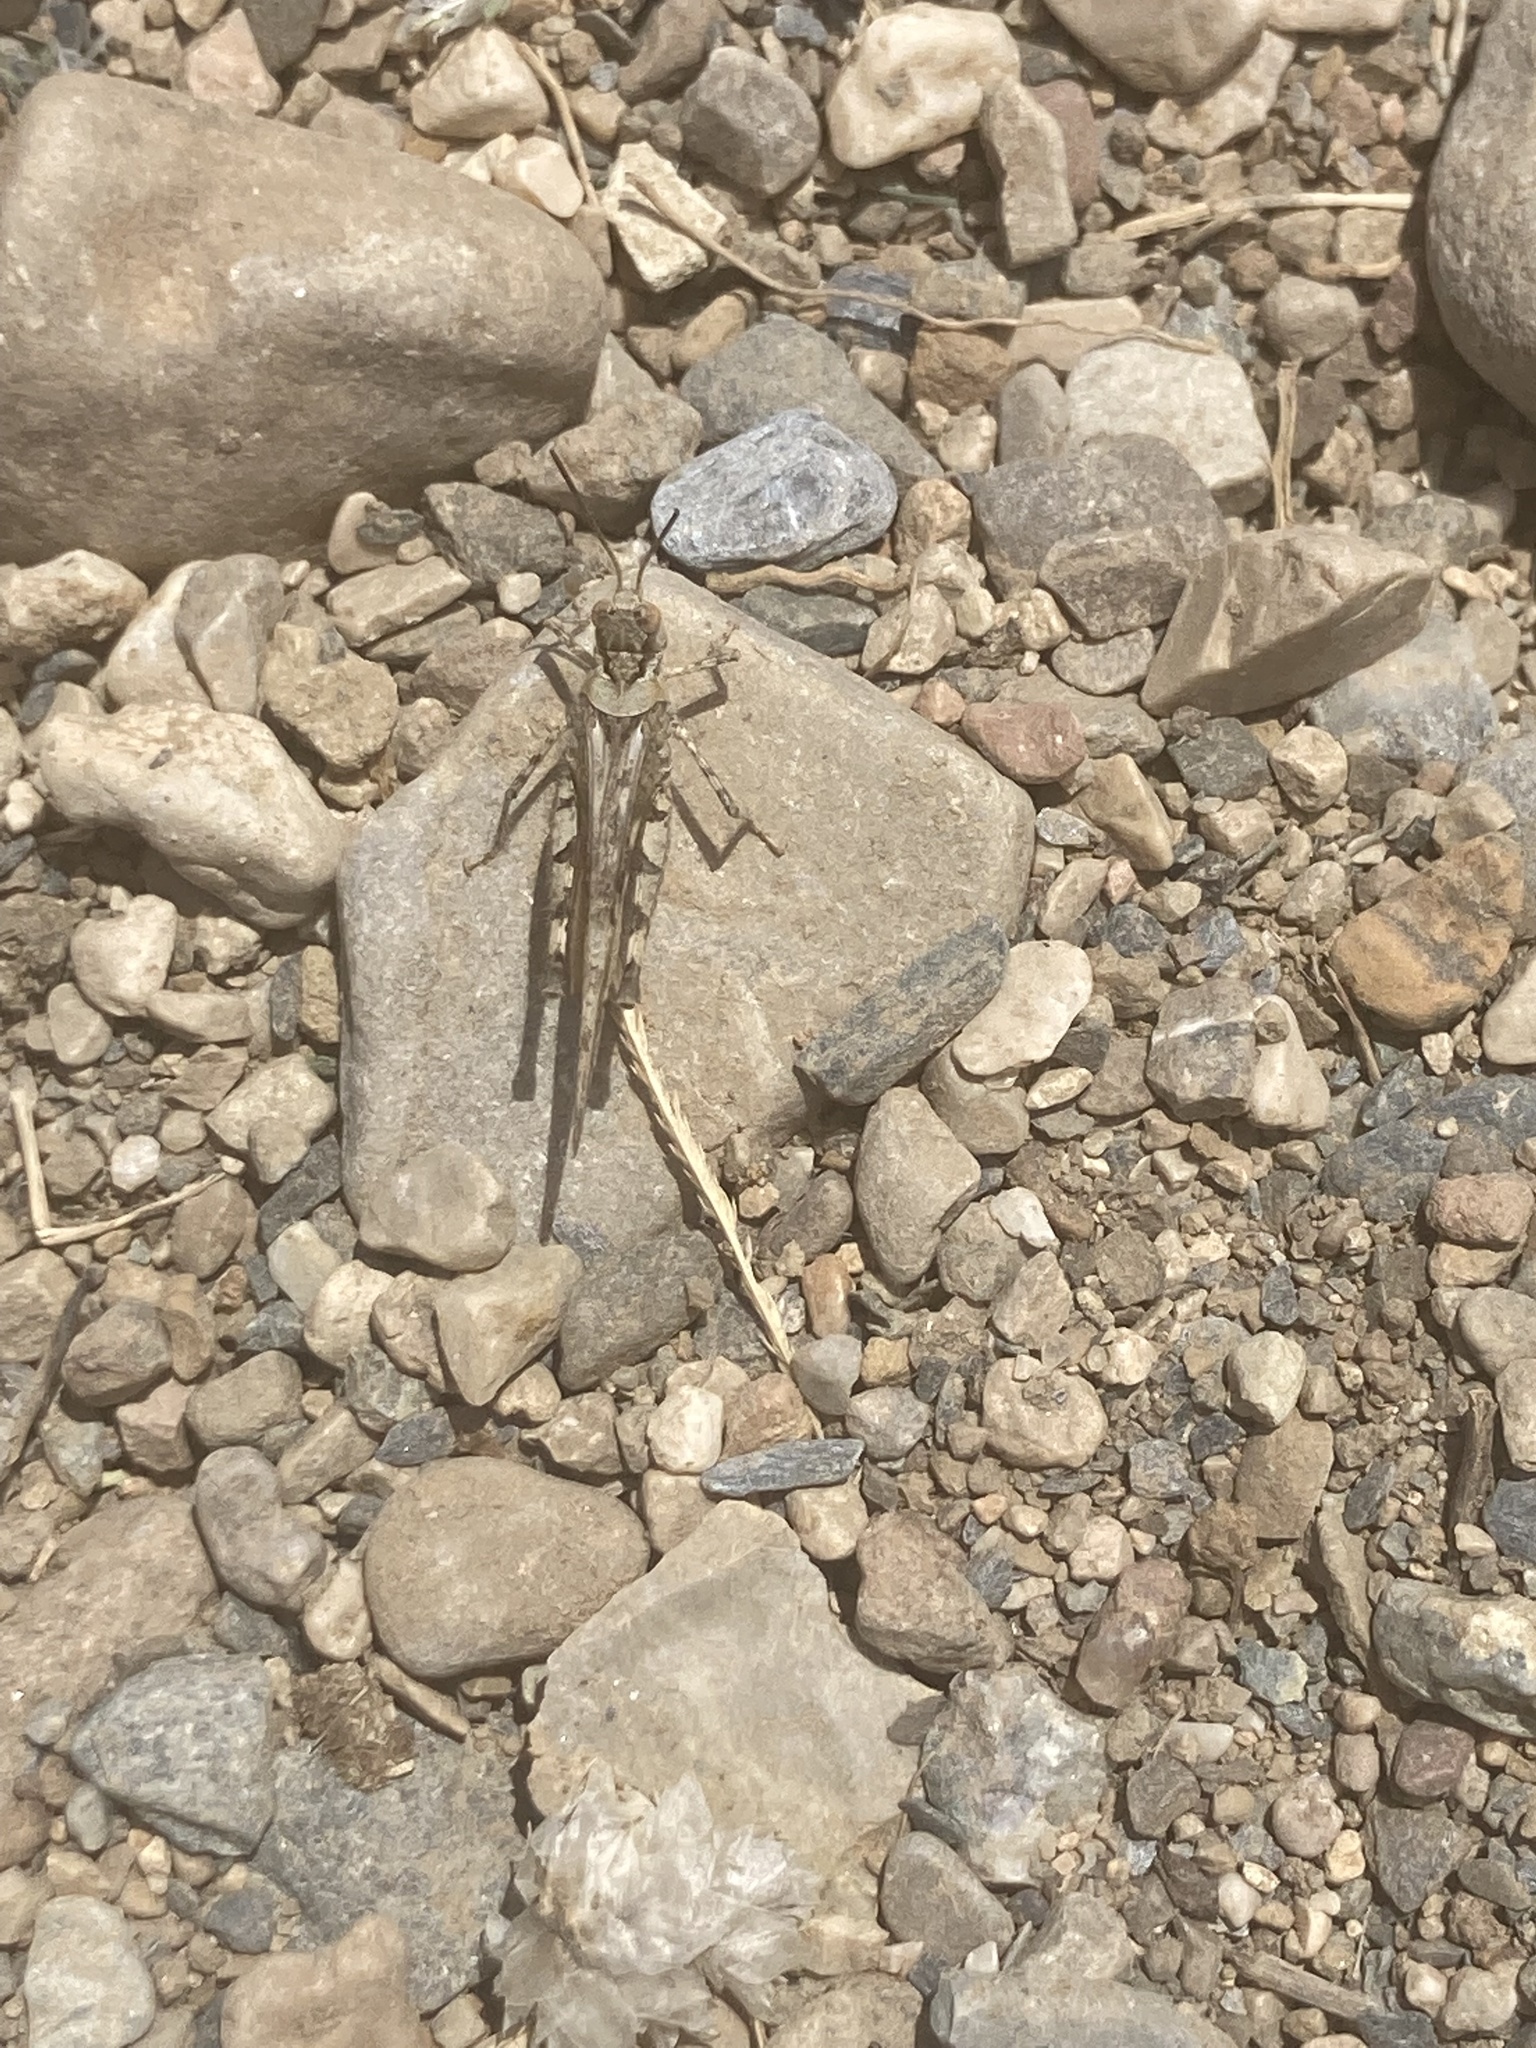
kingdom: Animalia
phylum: Arthropoda
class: Insecta
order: Orthoptera
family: Acrididae
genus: Acrotylus
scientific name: Acrotylus patruelis
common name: Slender burrowing grasshopper
